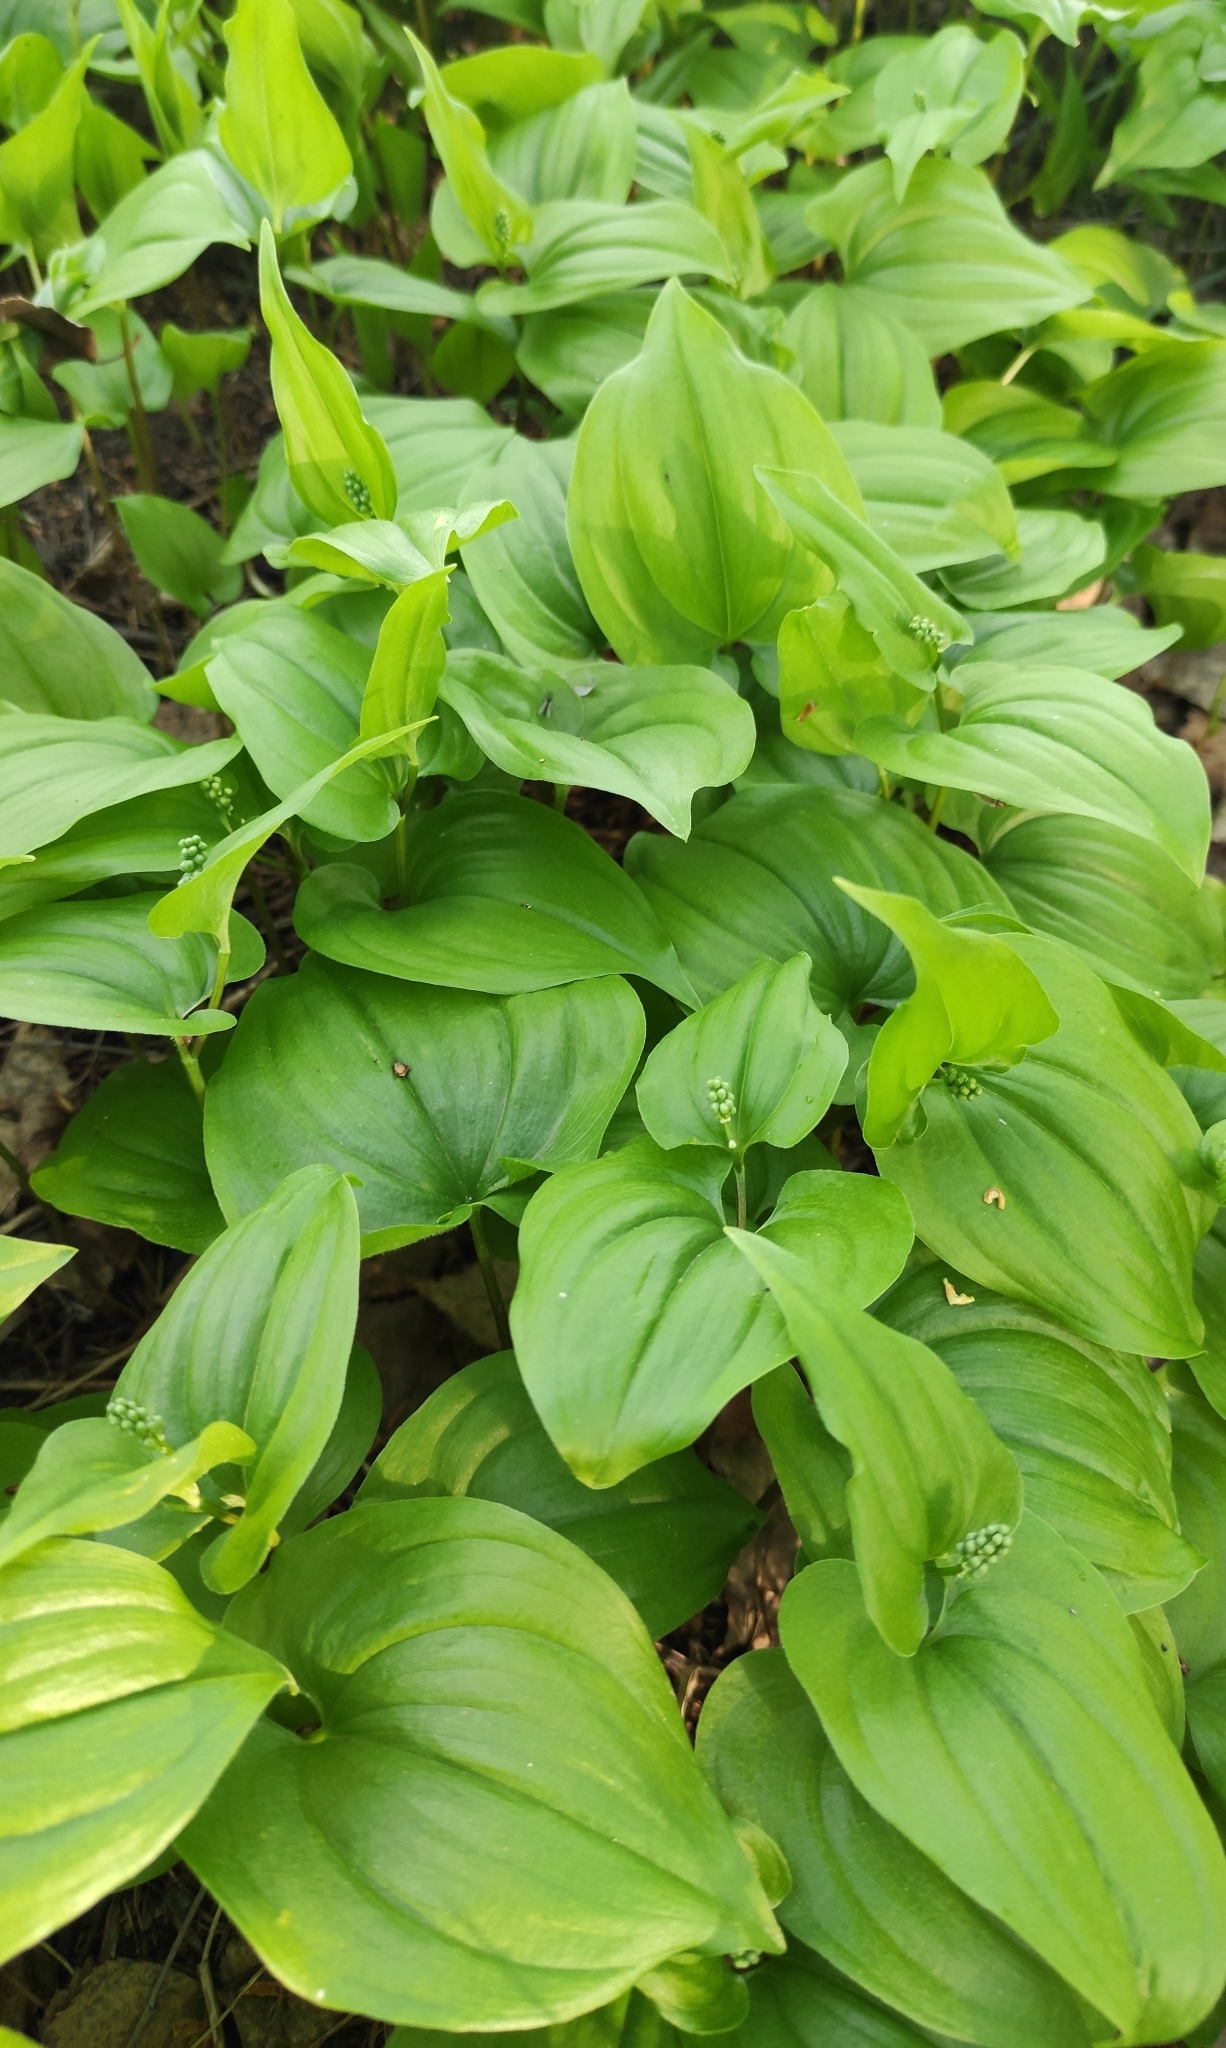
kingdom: Plantae
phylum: Tracheophyta
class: Liliopsida
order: Asparagales
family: Asparagaceae
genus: Maianthemum
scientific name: Maianthemum bifolium
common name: May lily
